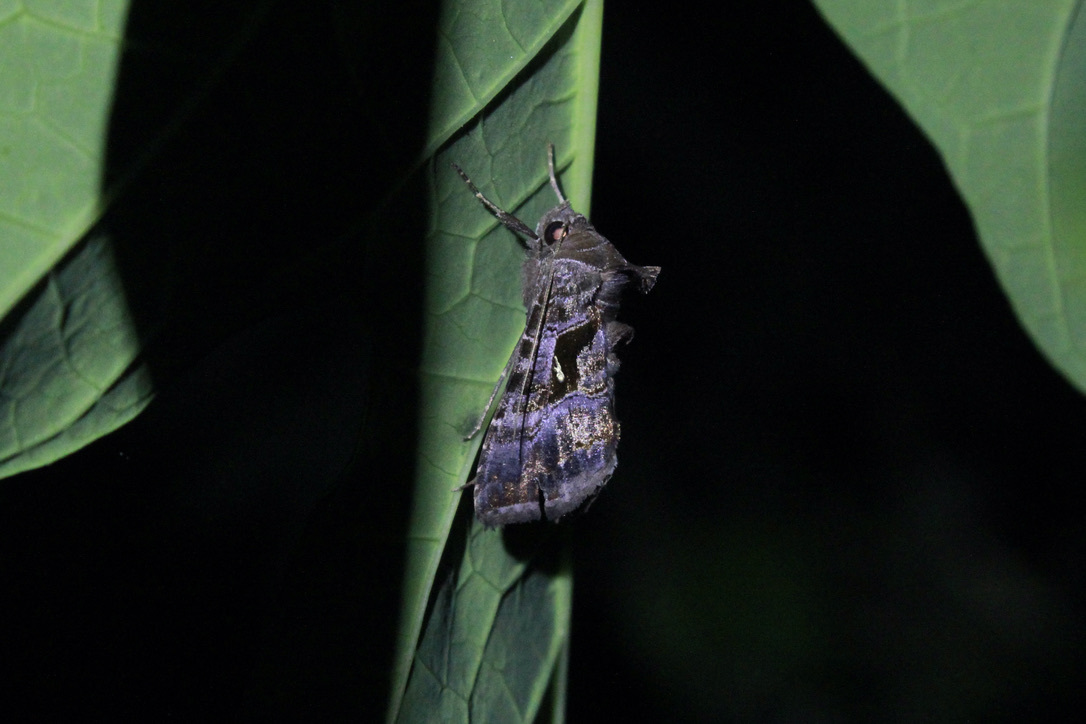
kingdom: Animalia
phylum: Arthropoda
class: Insecta
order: Lepidoptera
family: Noctuidae
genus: Agrapha
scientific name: Agrapha ahenea
